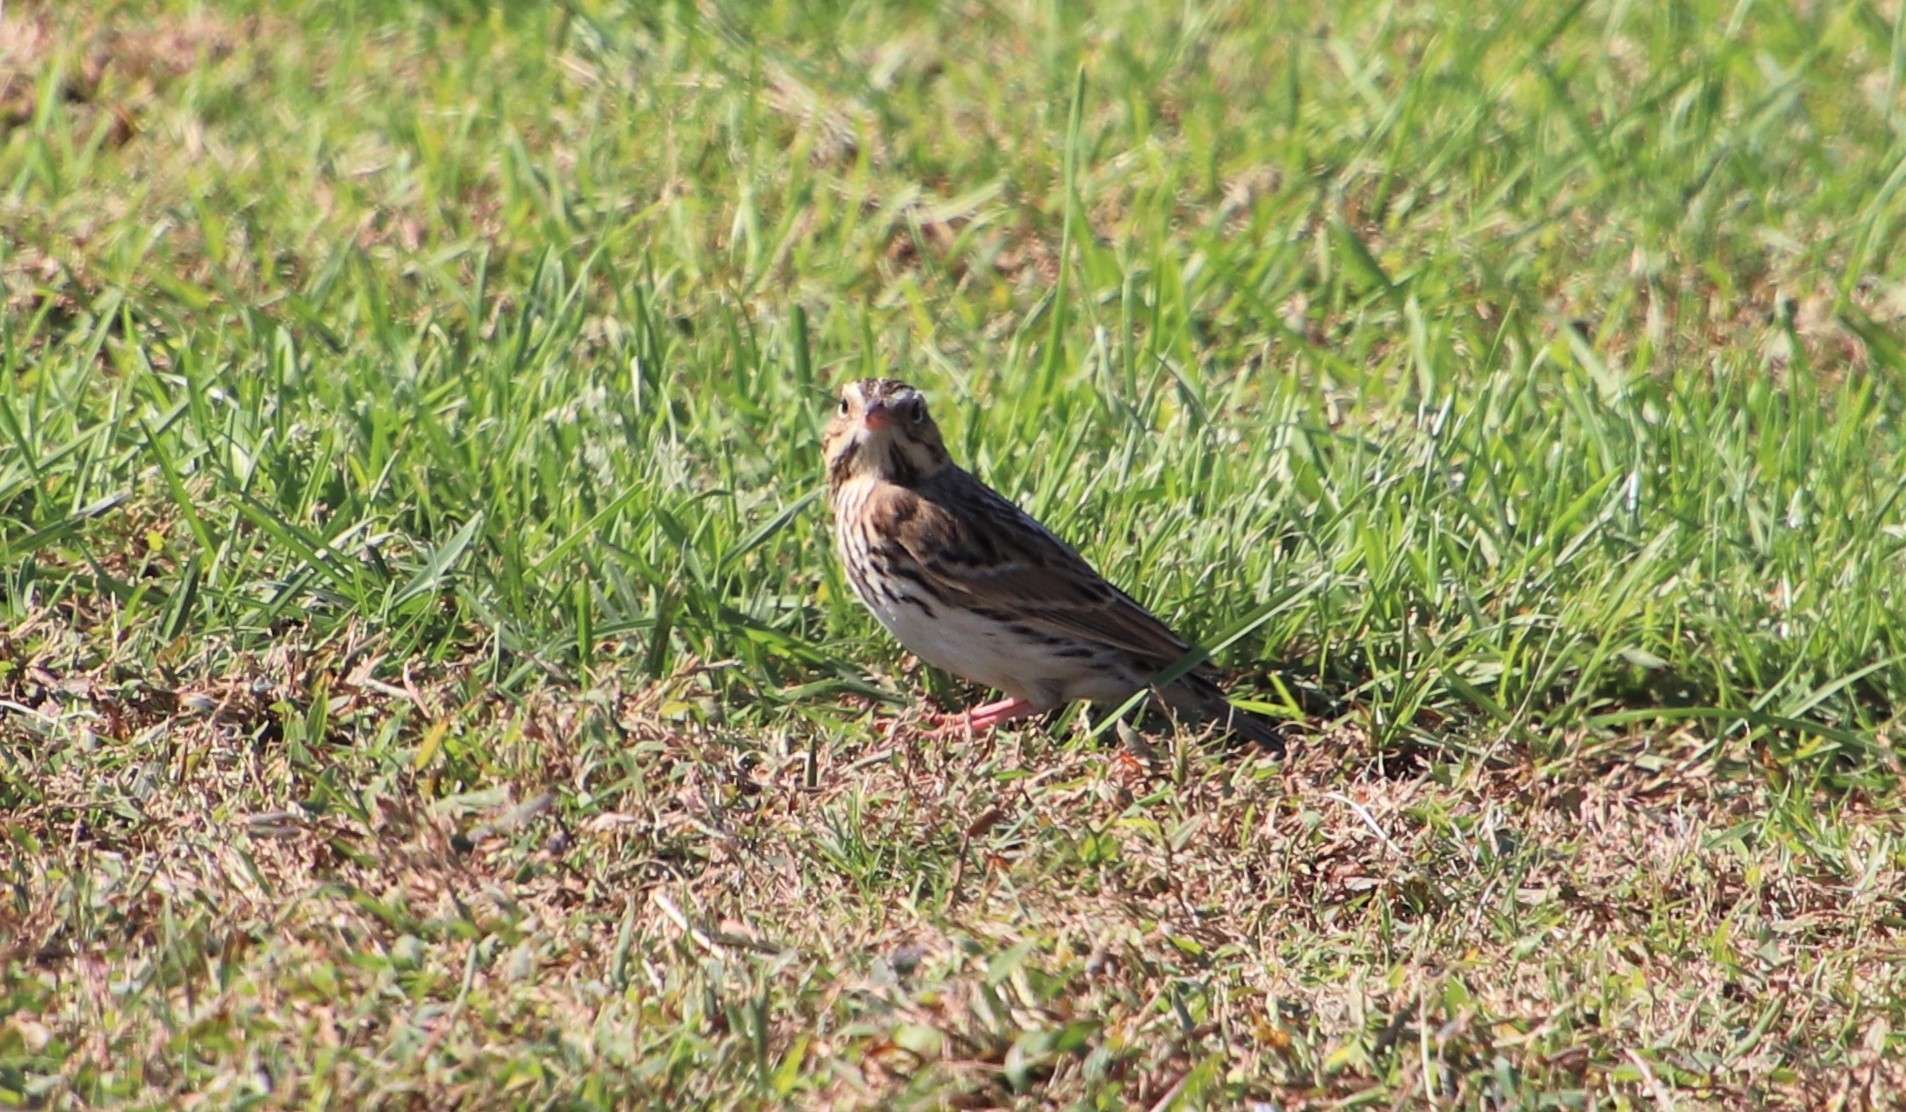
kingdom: Animalia
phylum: Chordata
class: Aves
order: Passeriformes
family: Passerellidae
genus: Passerculus
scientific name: Passerculus sandwichensis
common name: Savannah sparrow
